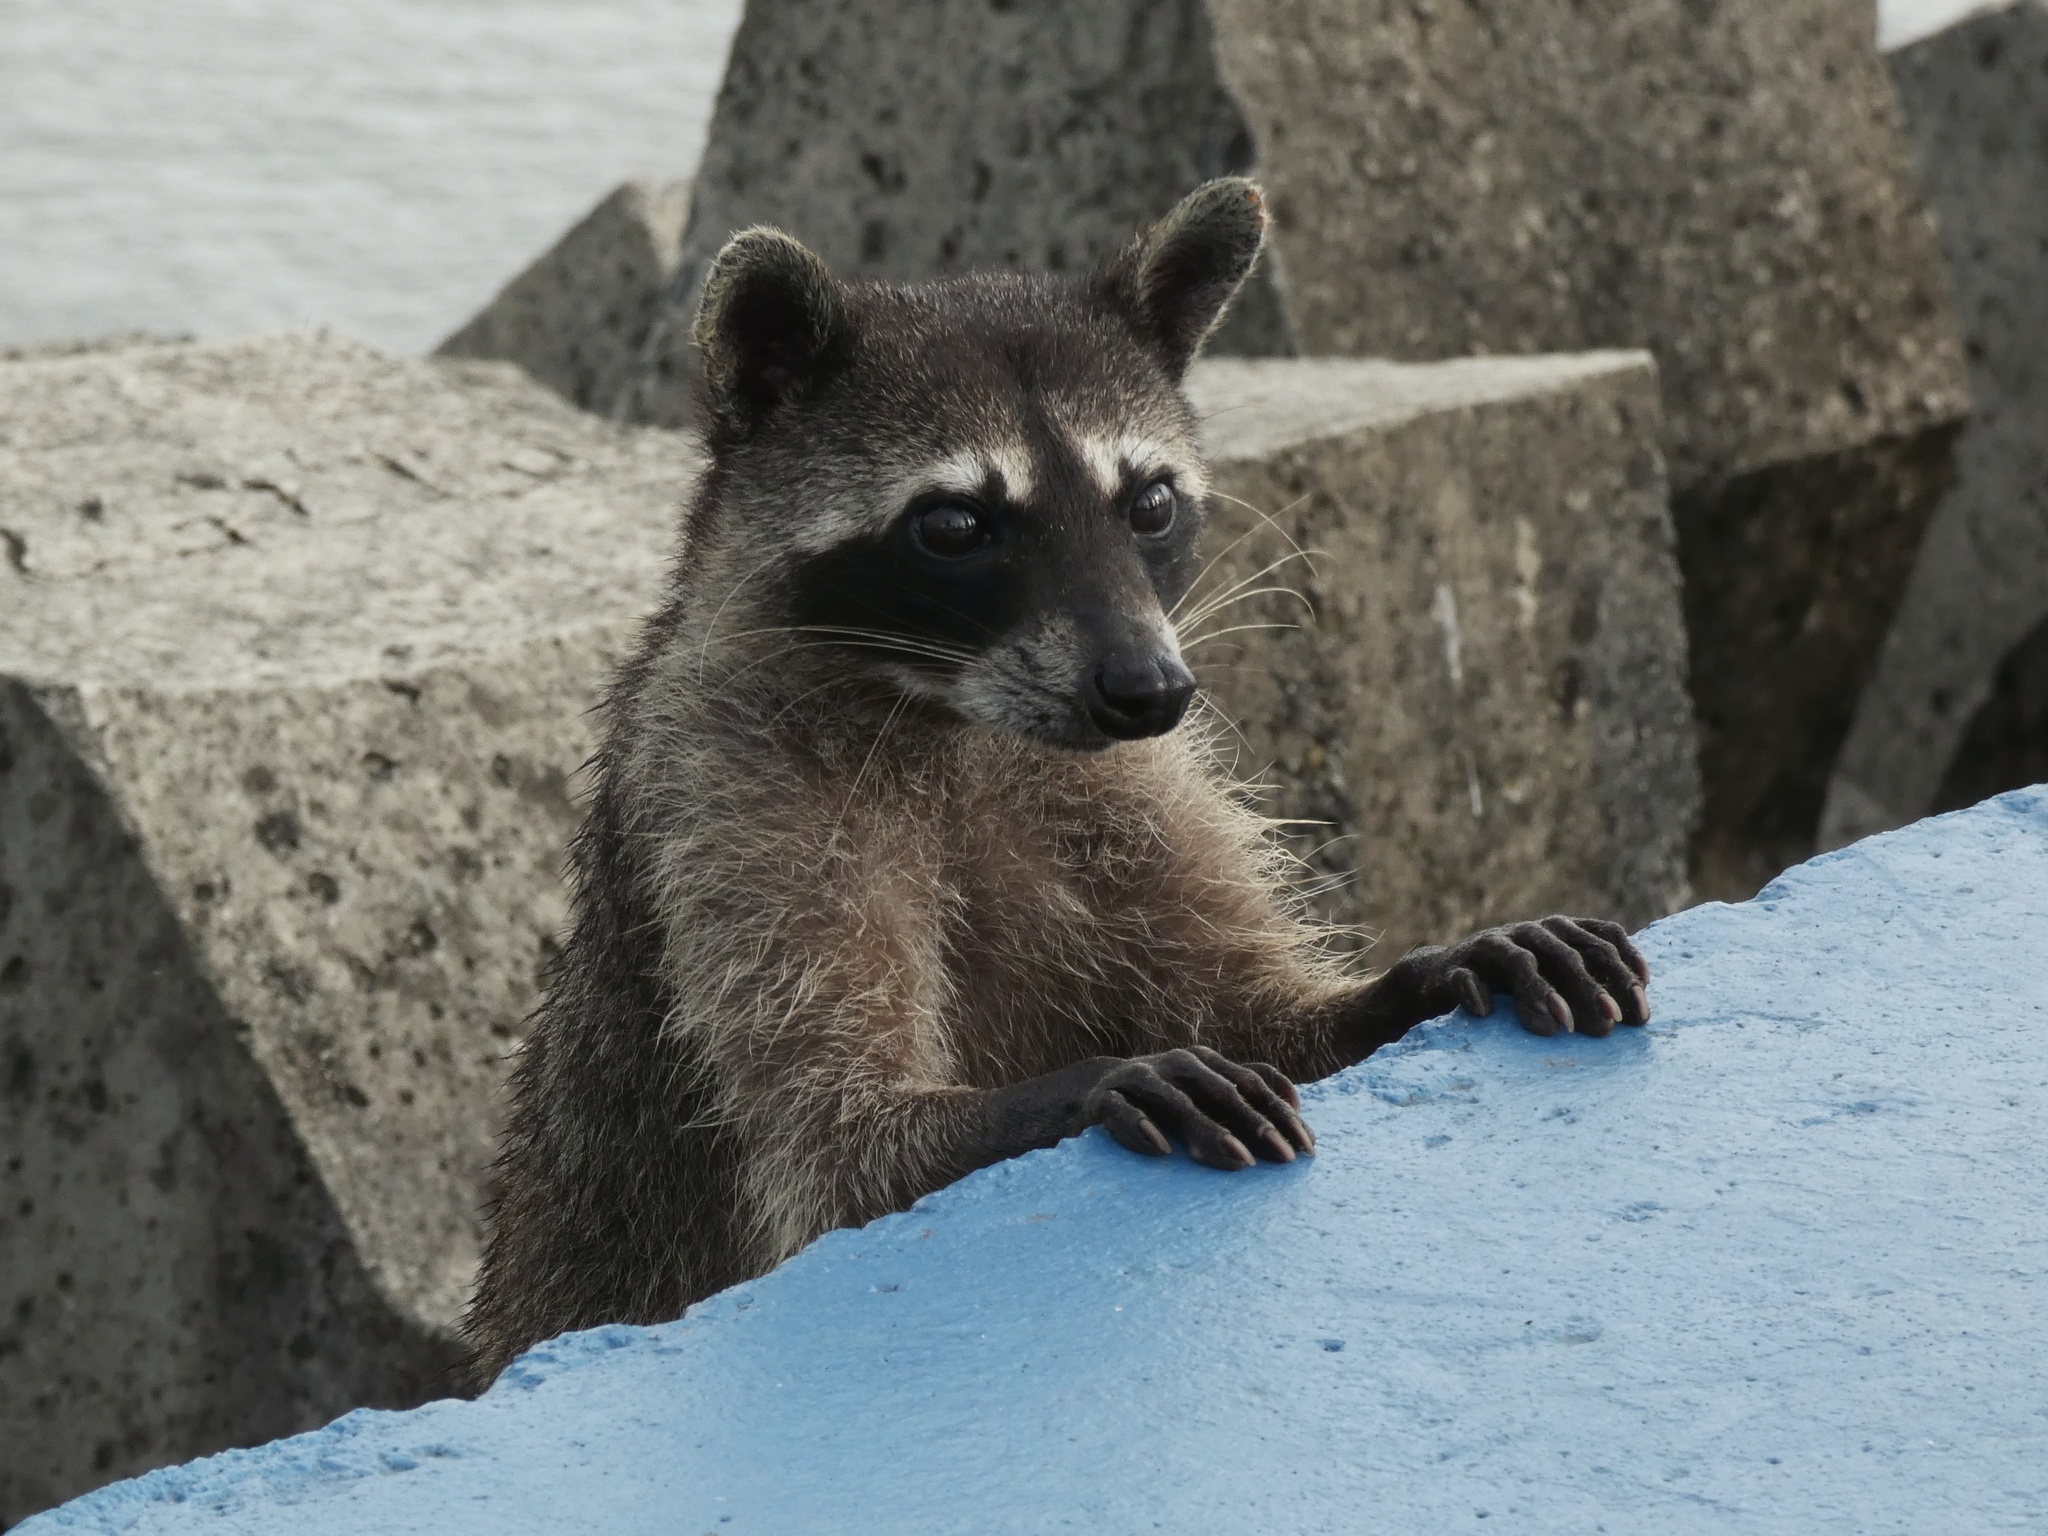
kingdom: Animalia
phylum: Chordata
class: Mammalia
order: Carnivora
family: Procyonidae
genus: Procyon
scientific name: Procyon lotor
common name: Raccoon
